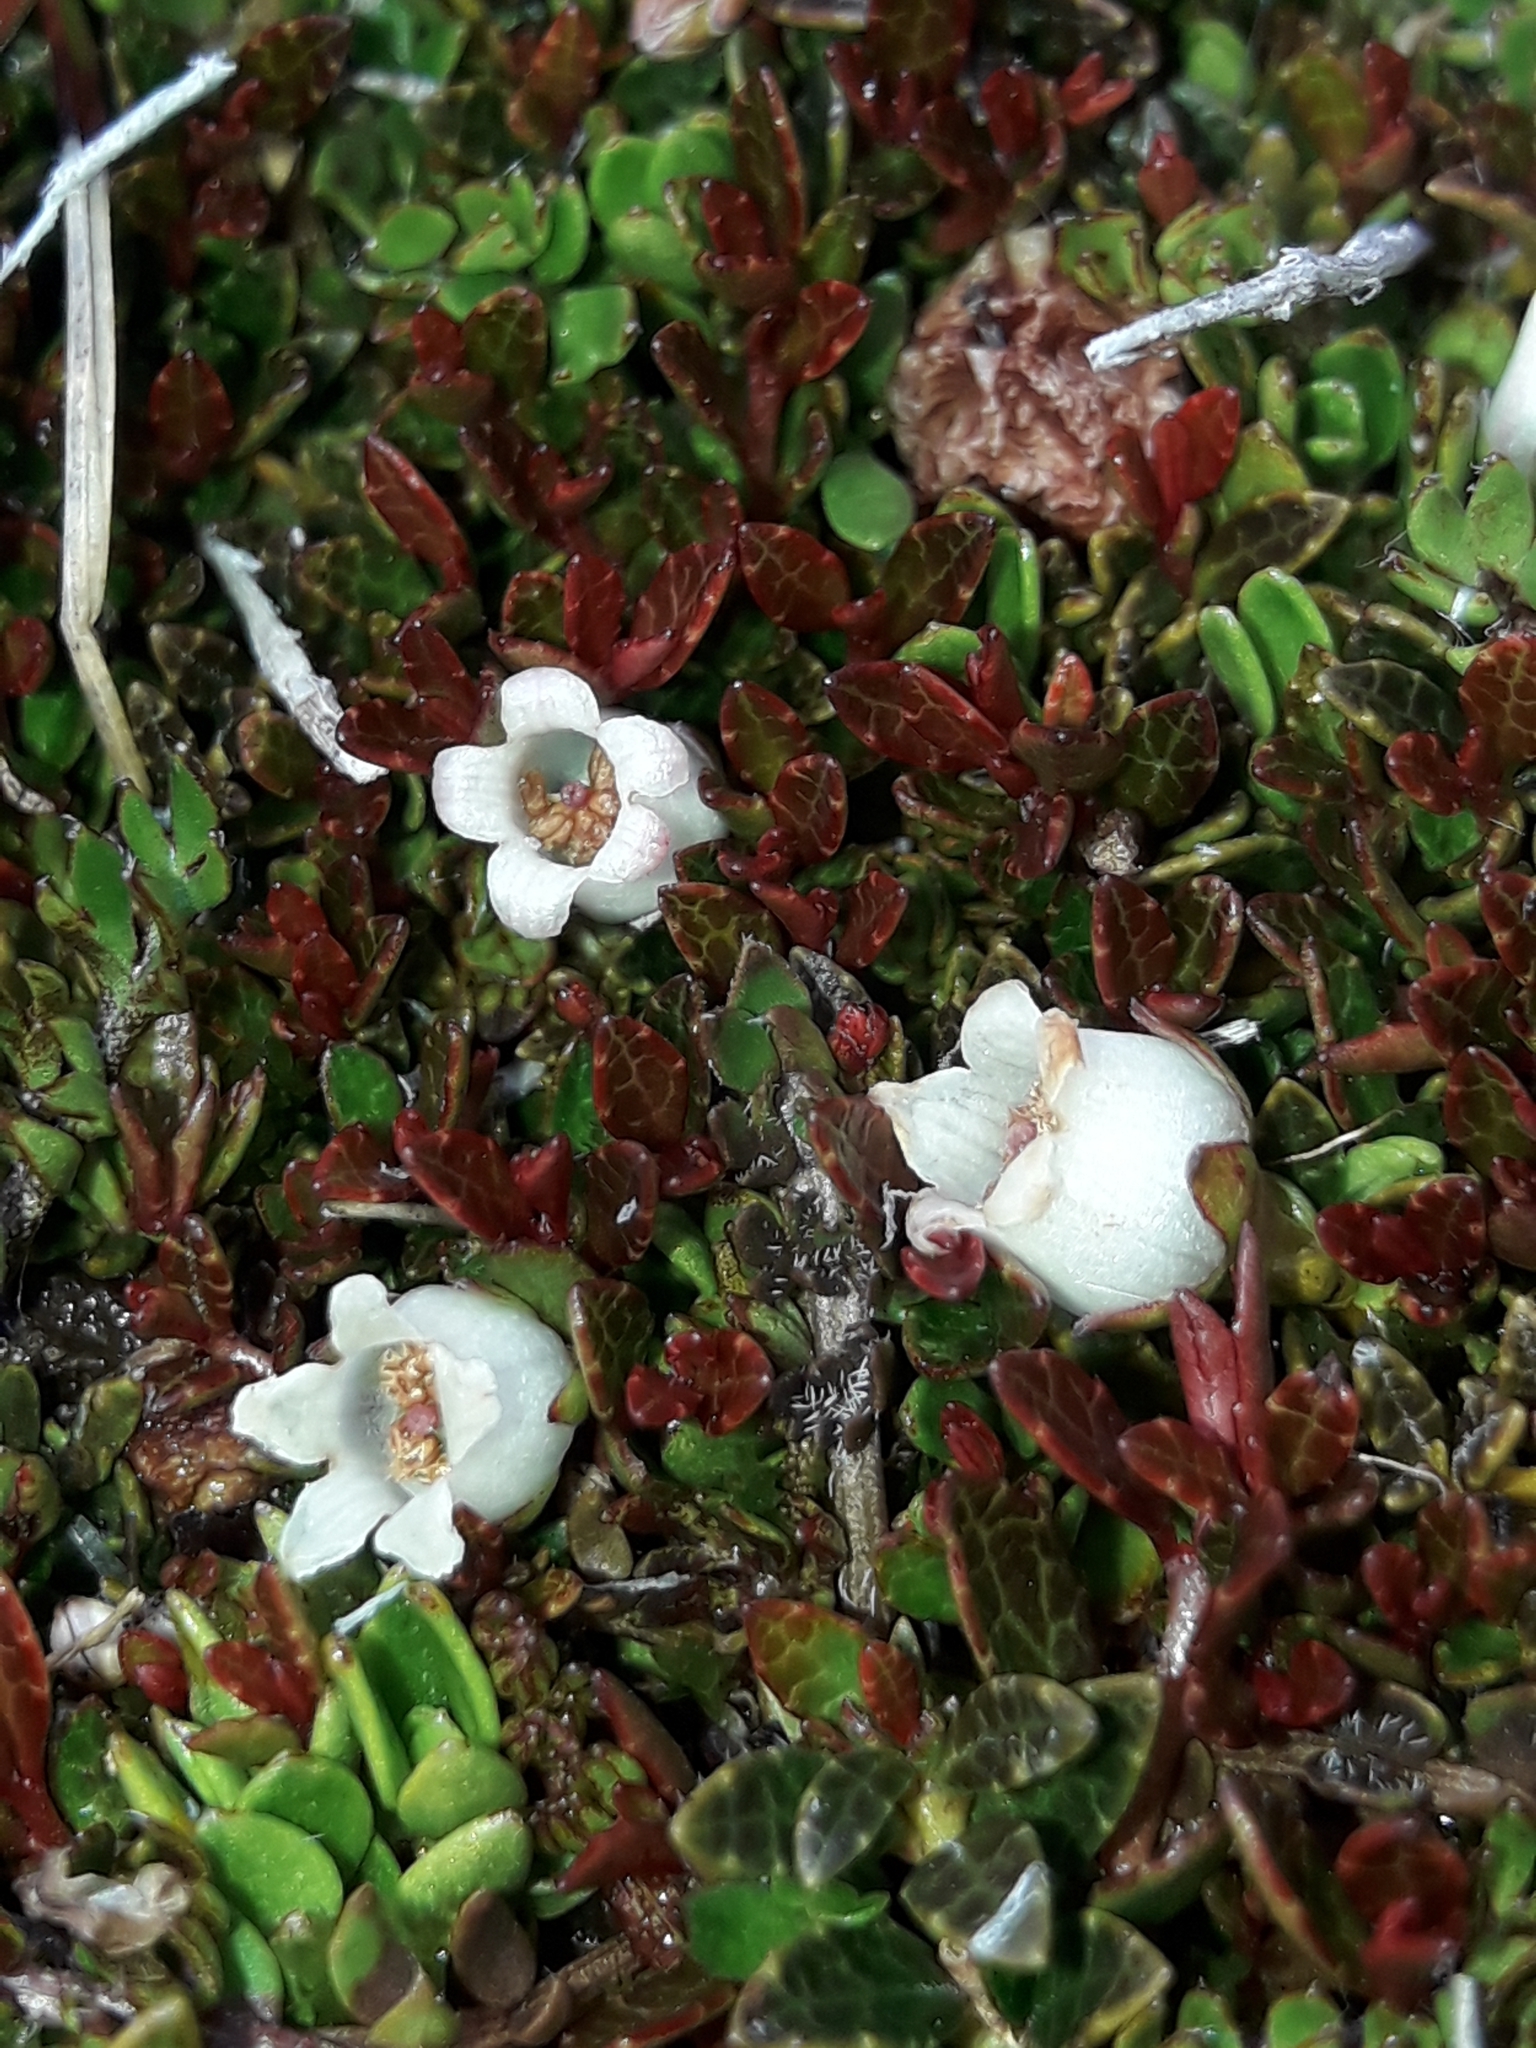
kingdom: Plantae
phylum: Tracheophyta
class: Magnoliopsida
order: Ericales
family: Ericaceae
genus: Gaultheria
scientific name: Gaultheria parvula
